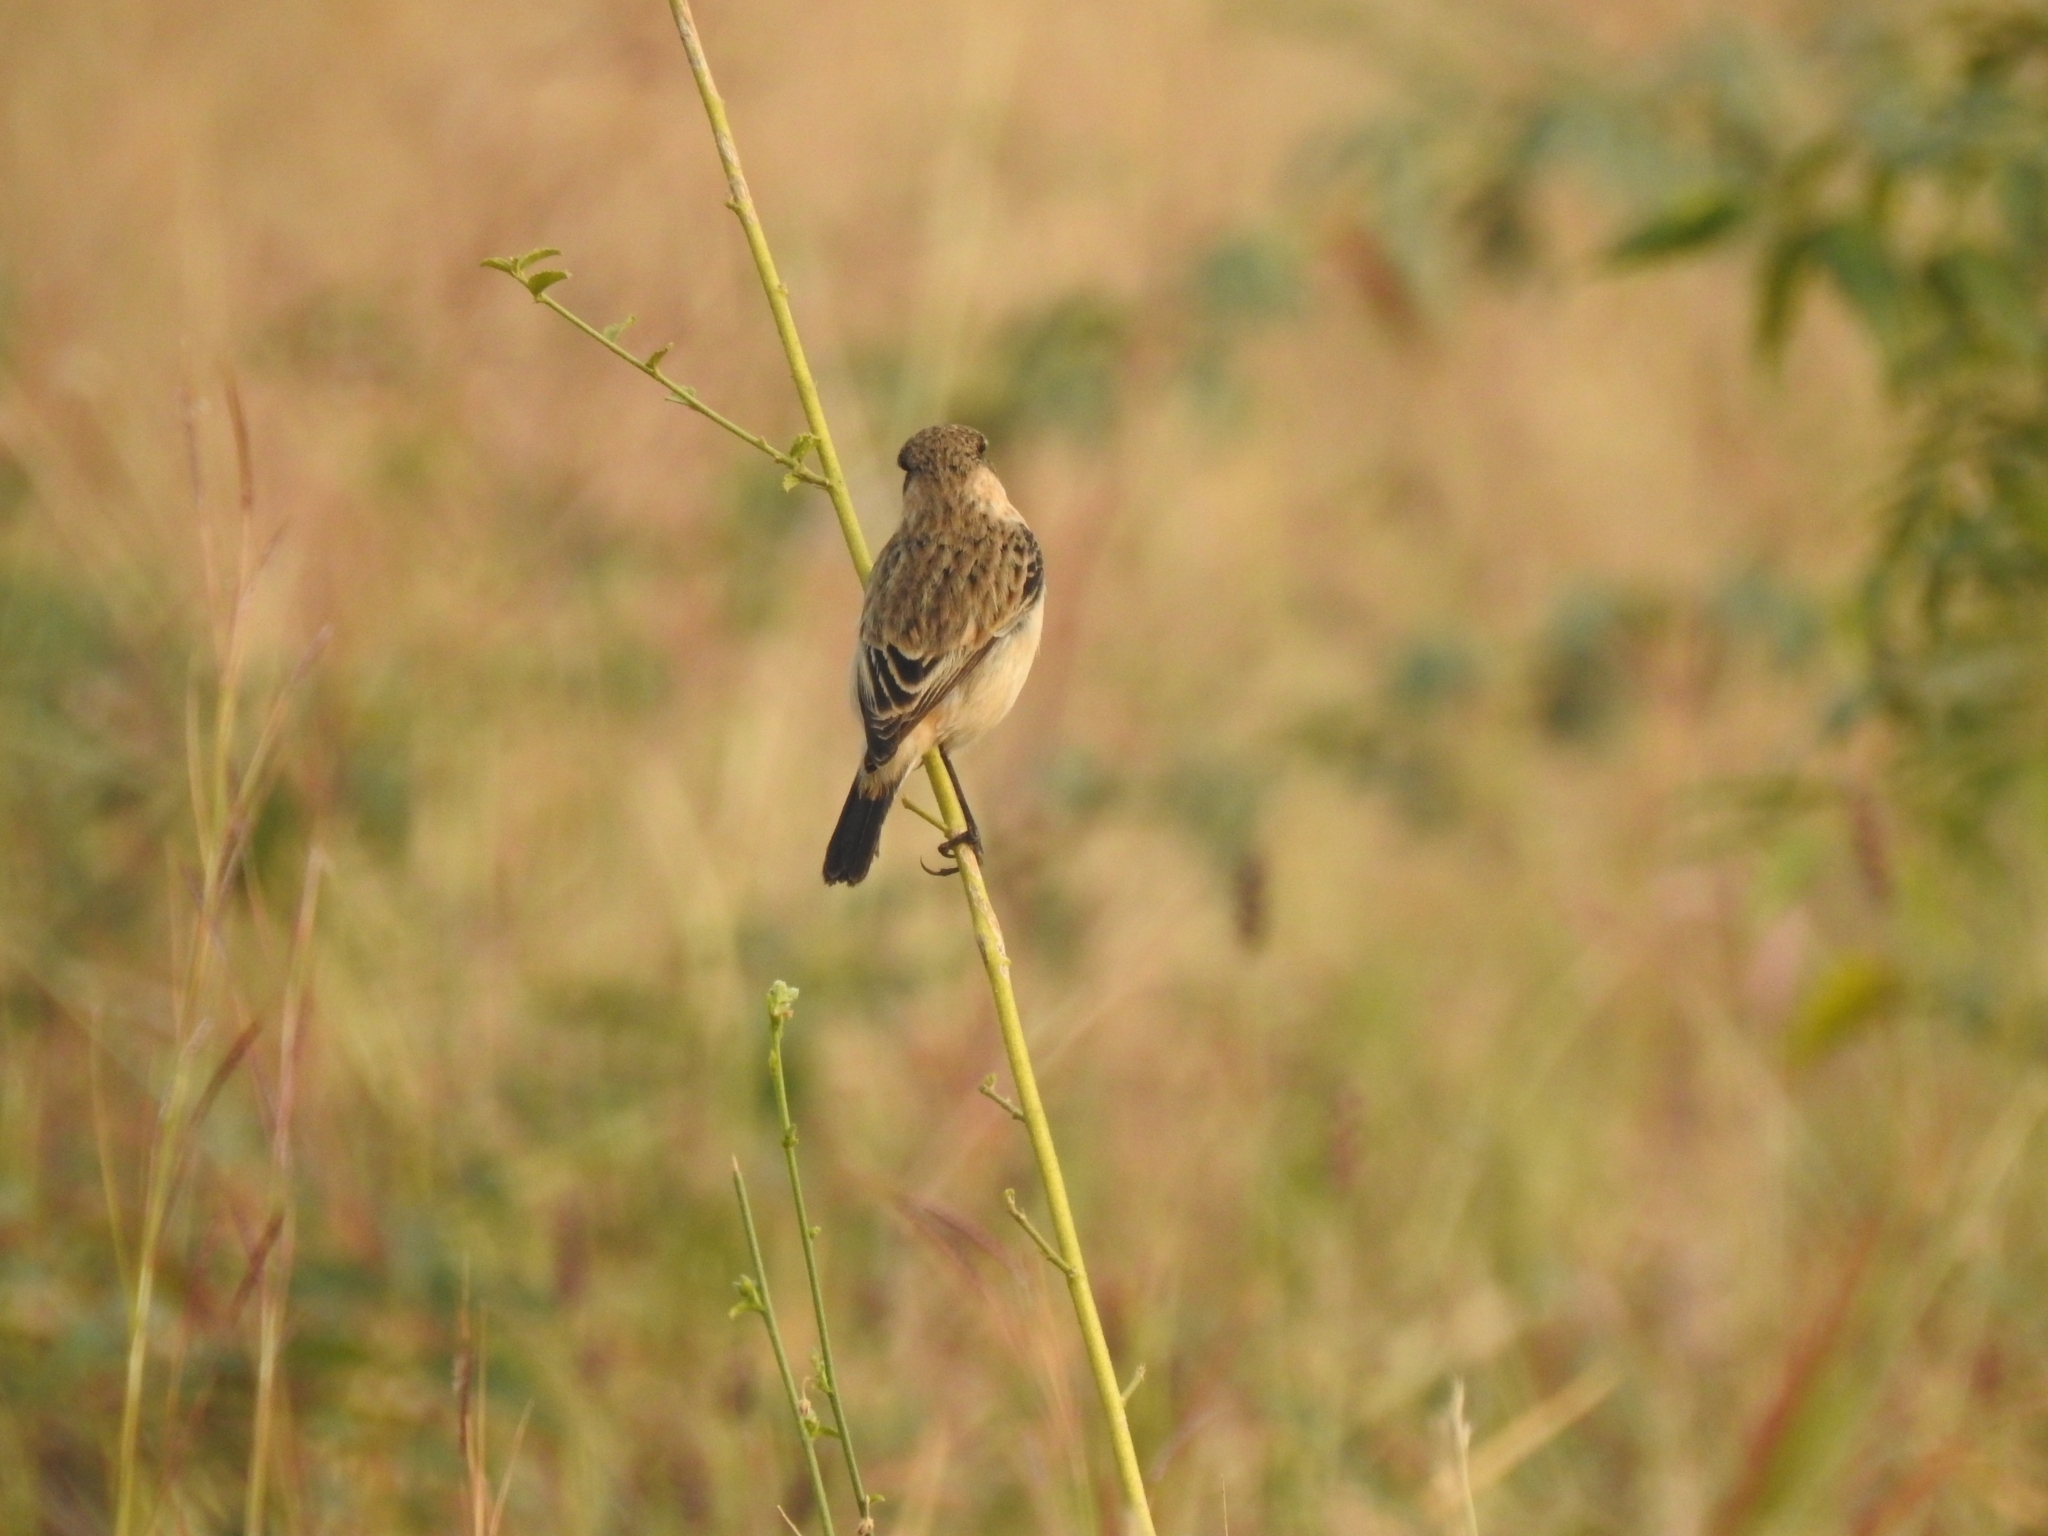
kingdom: Animalia
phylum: Chordata
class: Aves
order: Passeriformes
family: Muscicapidae
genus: Saxicola
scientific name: Saxicola maurus
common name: Siberian stonechat
